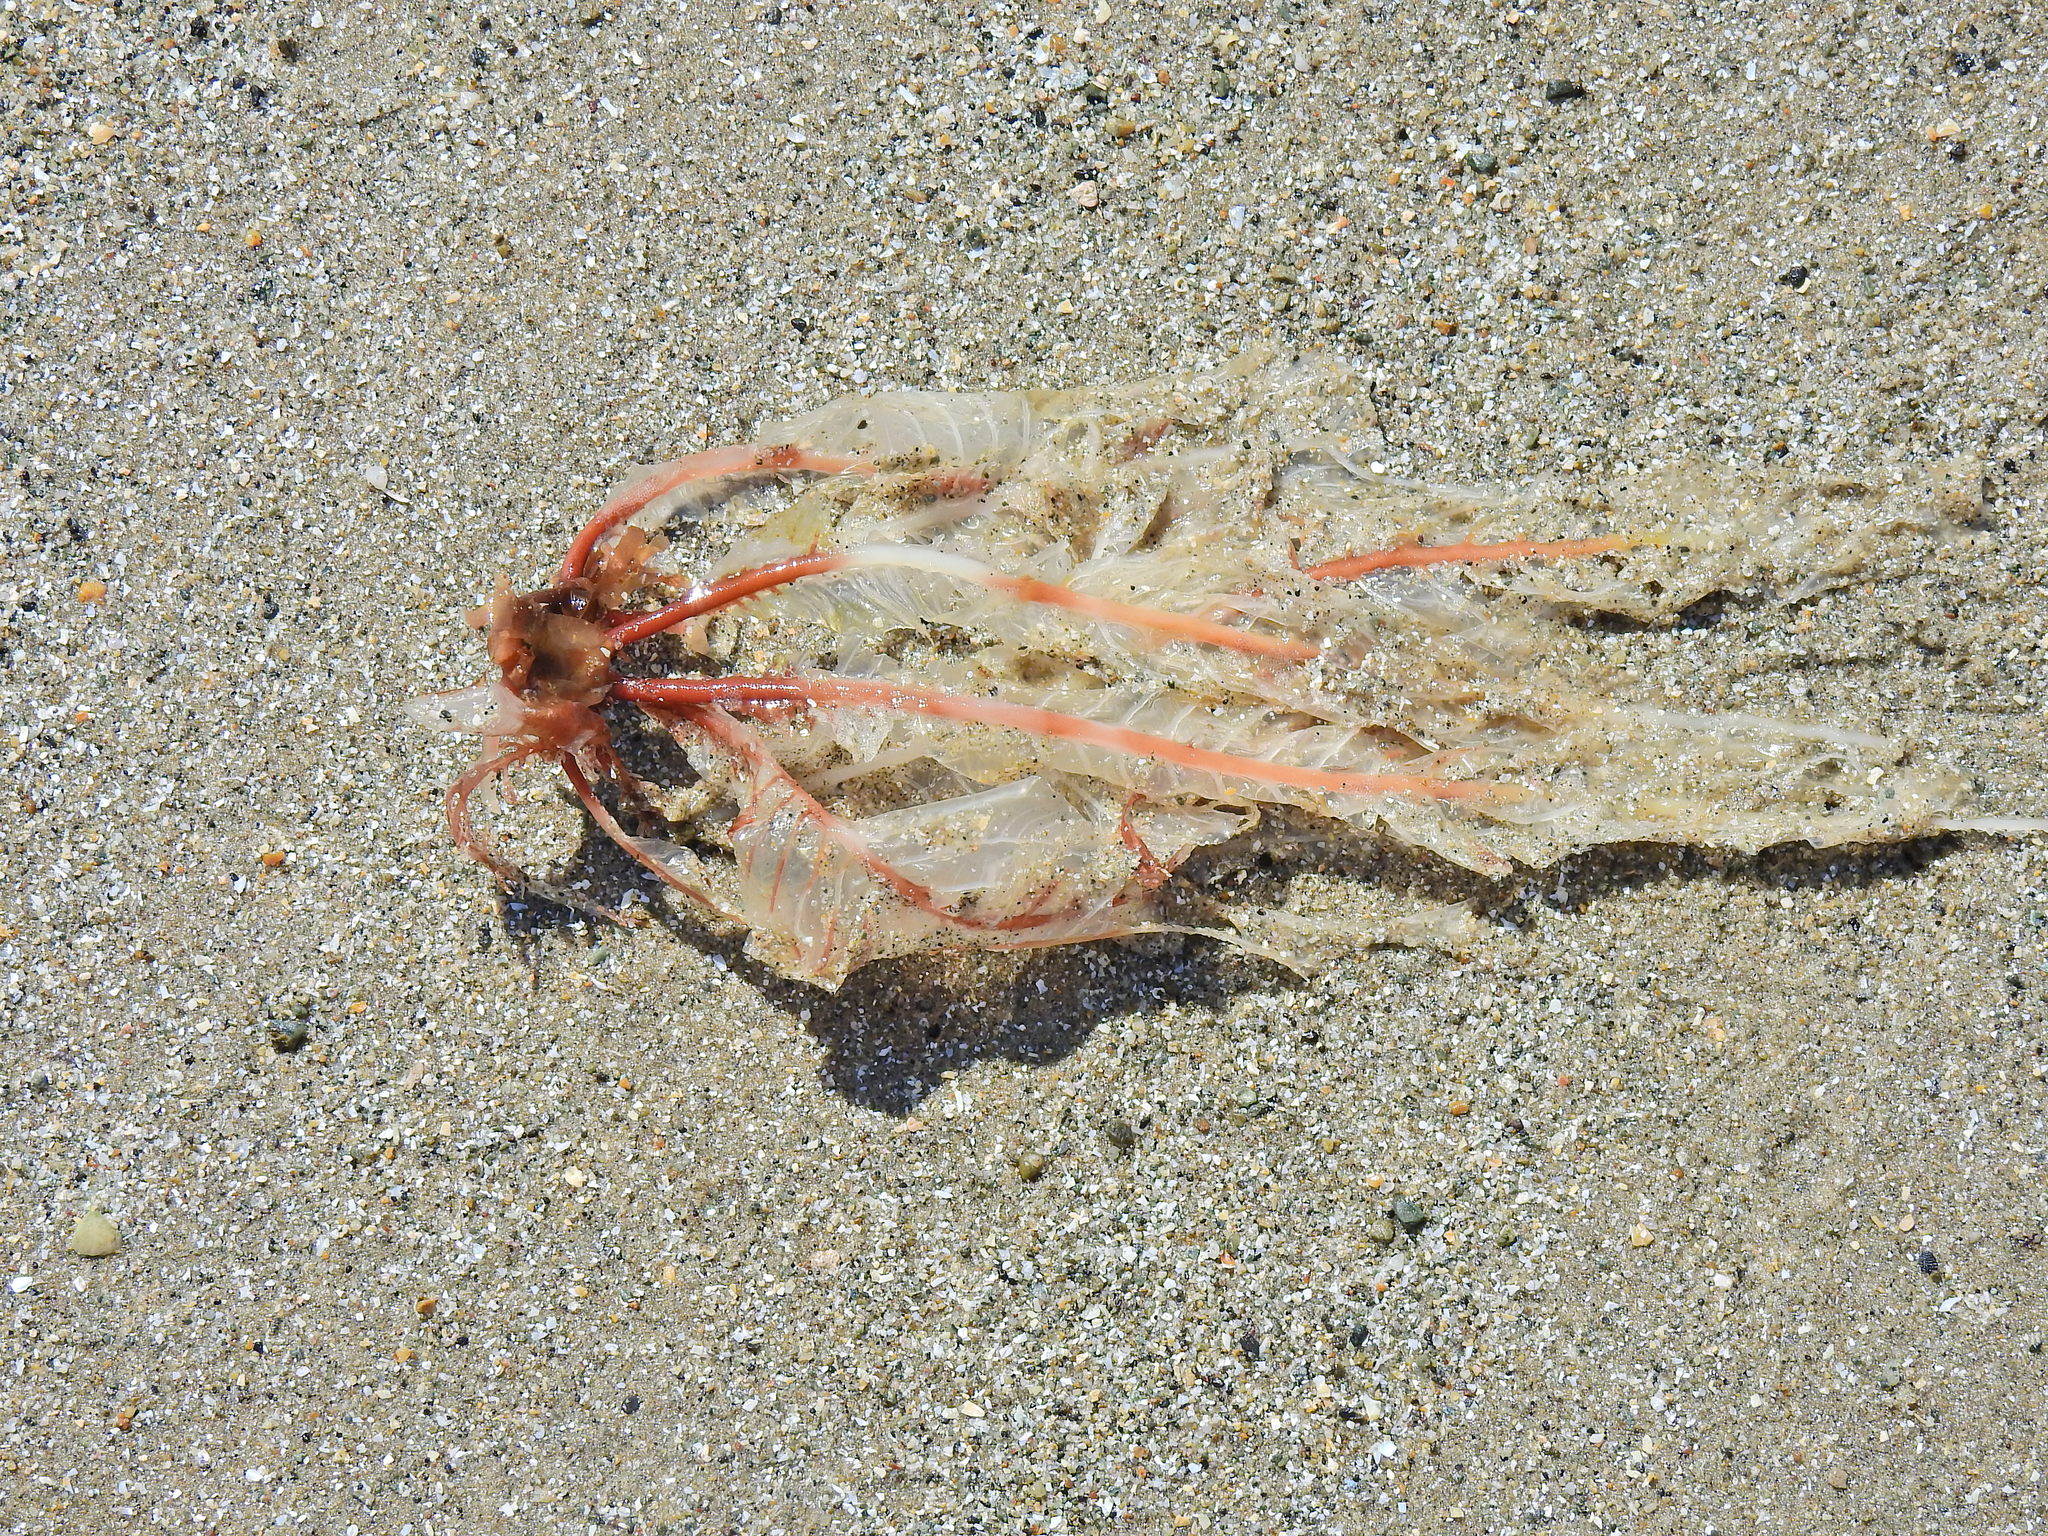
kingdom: Plantae
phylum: Rhodophyta
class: Florideophyceae
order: Ceramiales
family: Delesseriaceae
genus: Delesseria
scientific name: Delesseria sanguinea
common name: Sea beech
